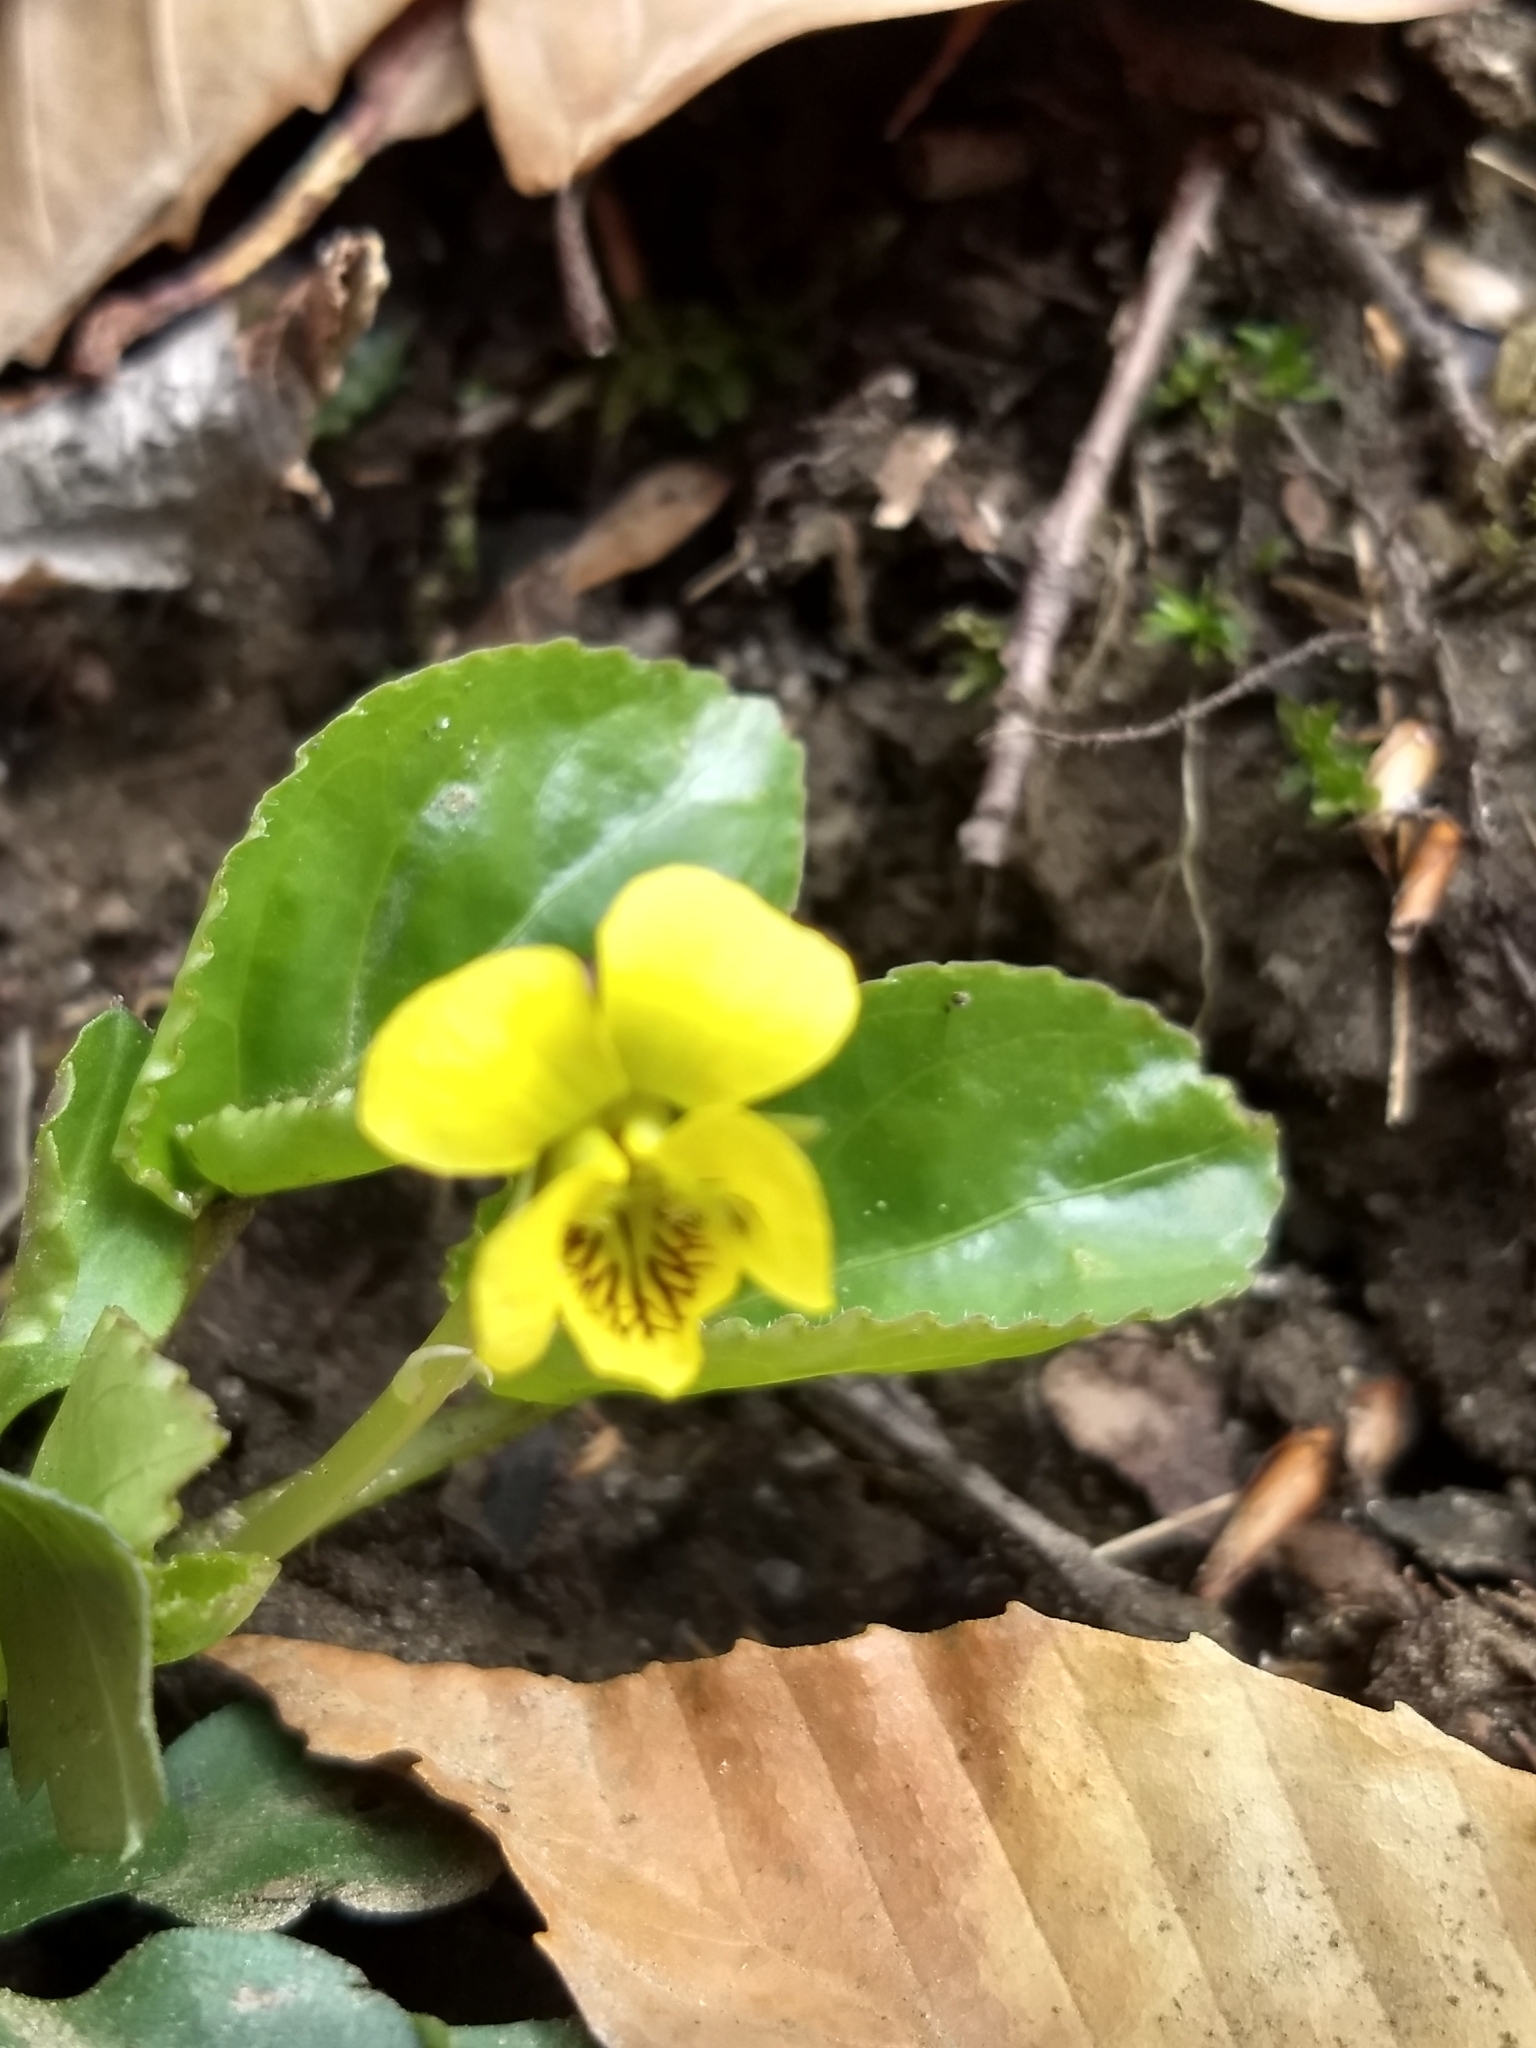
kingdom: Plantae
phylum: Tracheophyta
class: Magnoliopsida
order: Malpighiales
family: Violaceae
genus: Viola
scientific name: Viola rotundifolia
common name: Early yellow violet
